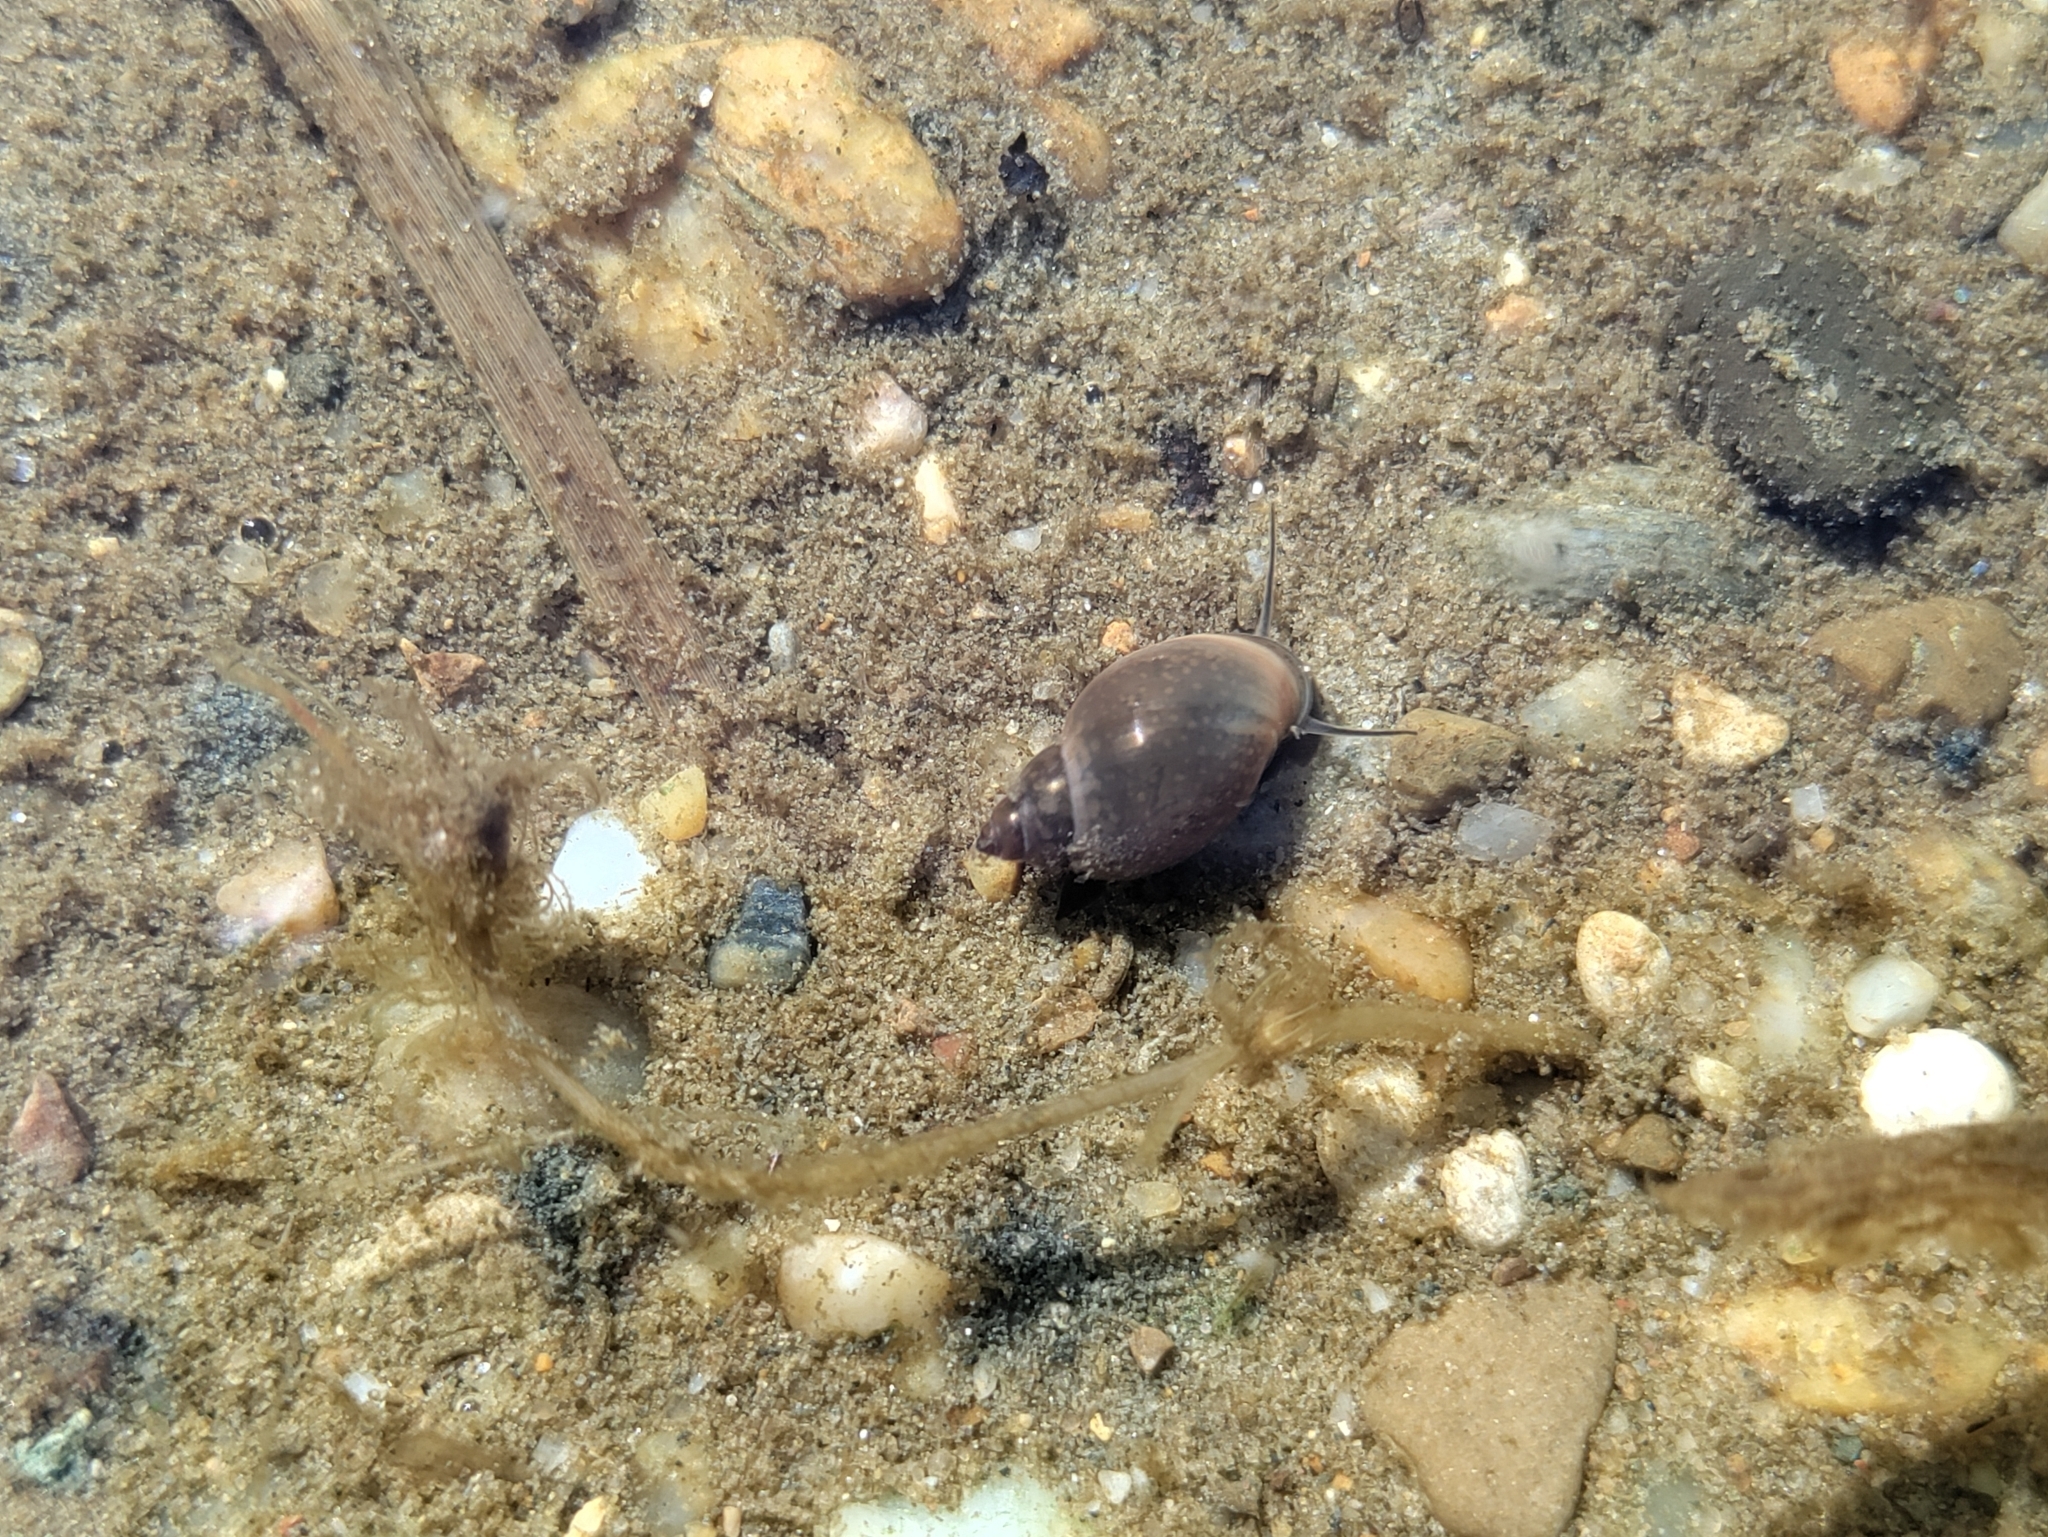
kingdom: Animalia
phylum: Mollusca
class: Gastropoda
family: Physidae
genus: Physella
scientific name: Physella acuta
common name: European physa
